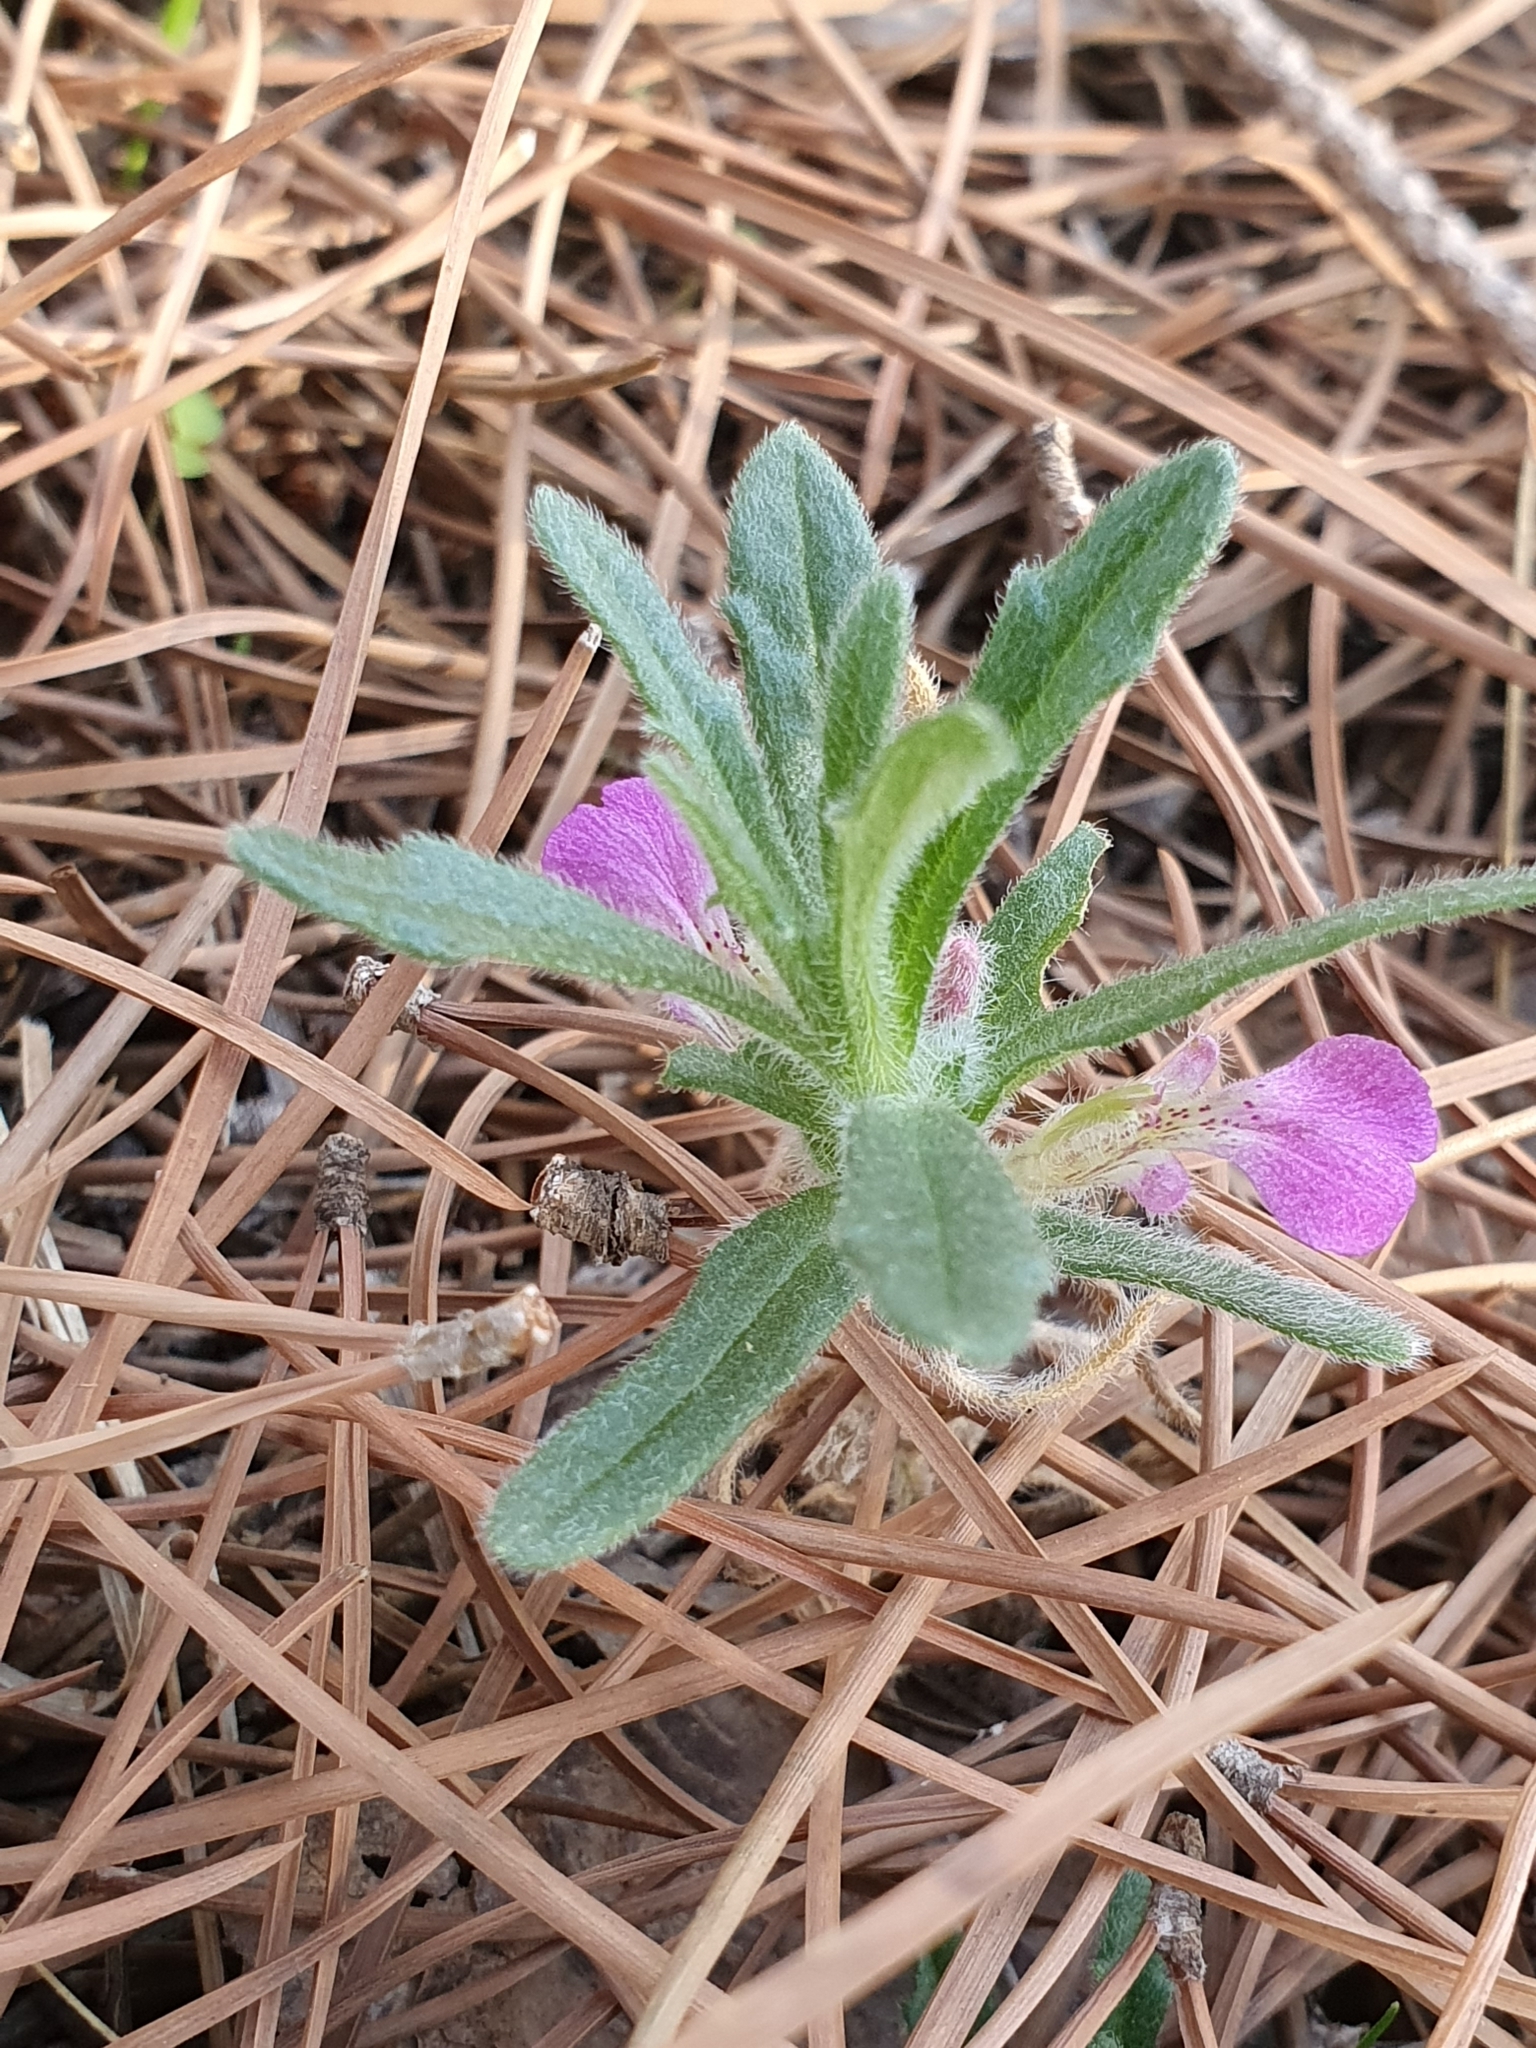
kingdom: Plantae
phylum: Tracheophyta
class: Magnoliopsida
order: Lamiales
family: Lamiaceae
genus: Ajuga
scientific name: Ajuga iva
